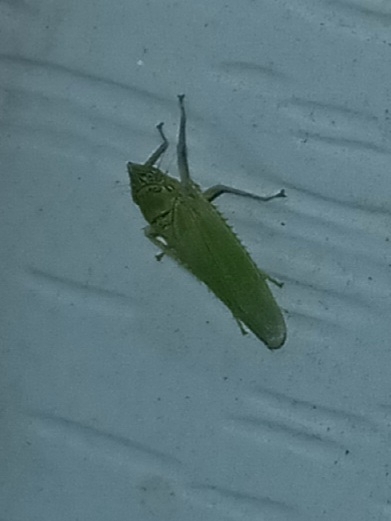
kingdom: Animalia
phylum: Arthropoda
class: Insecta
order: Hemiptera
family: Cicadellidae
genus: Draeculacephala
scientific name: Draeculacephala inscripta
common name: Leafhopper
